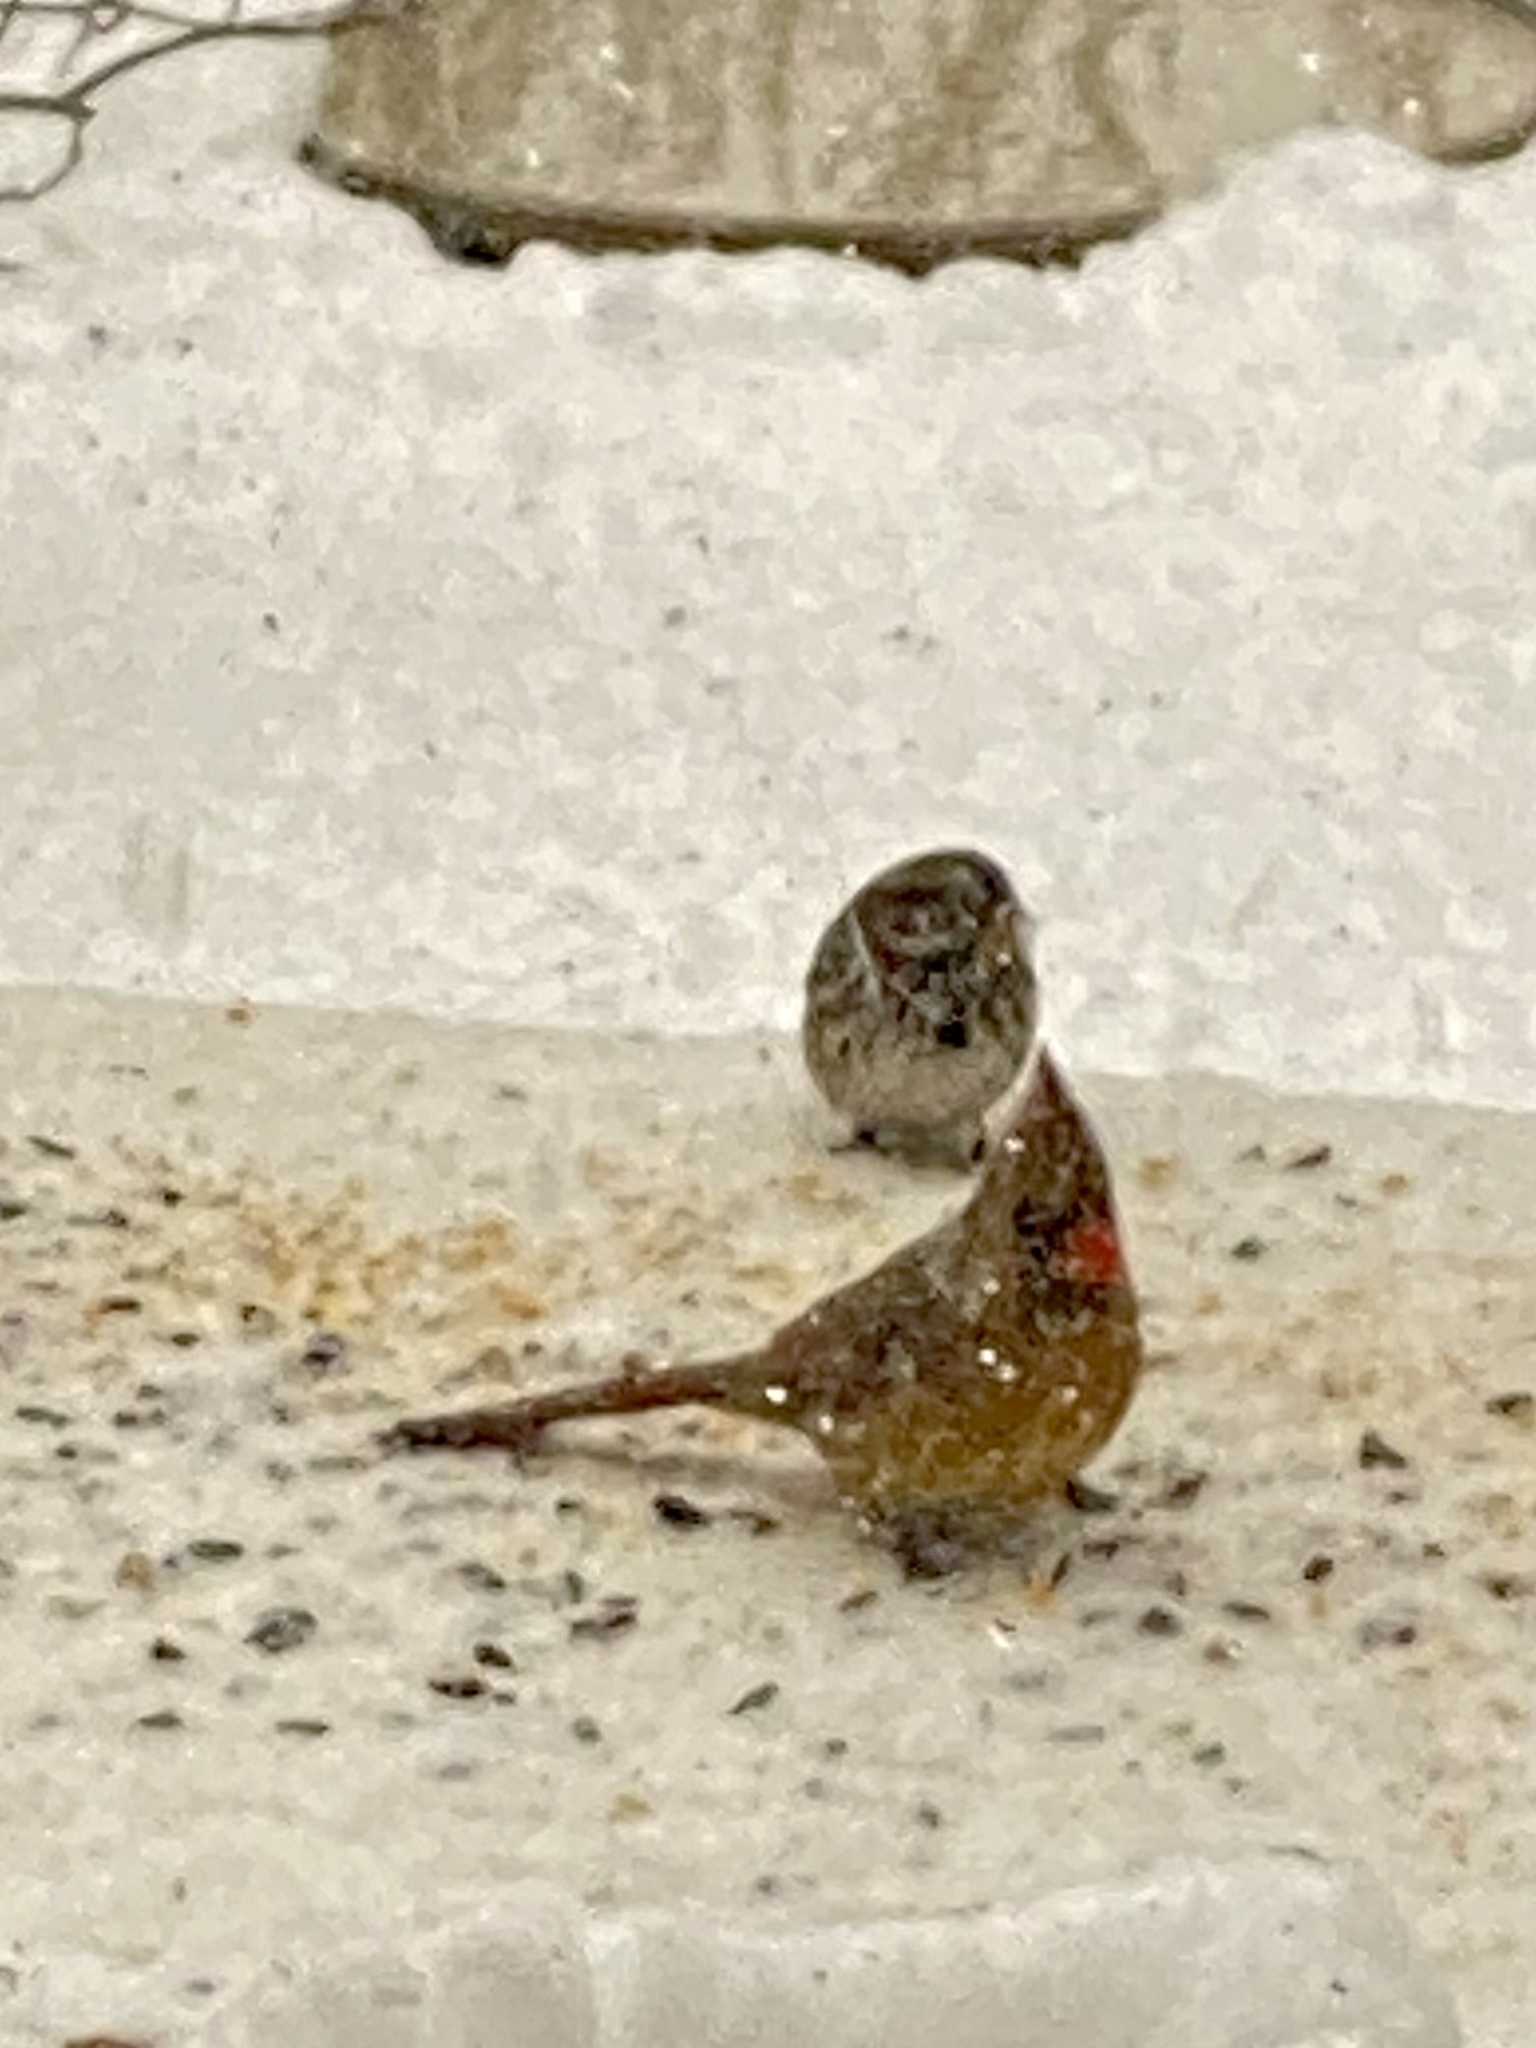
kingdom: Animalia
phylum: Chordata
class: Aves
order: Passeriformes
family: Cardinalidae
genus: Cardinalis
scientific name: Cardinalis cardinalis
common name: Northern cardinal
